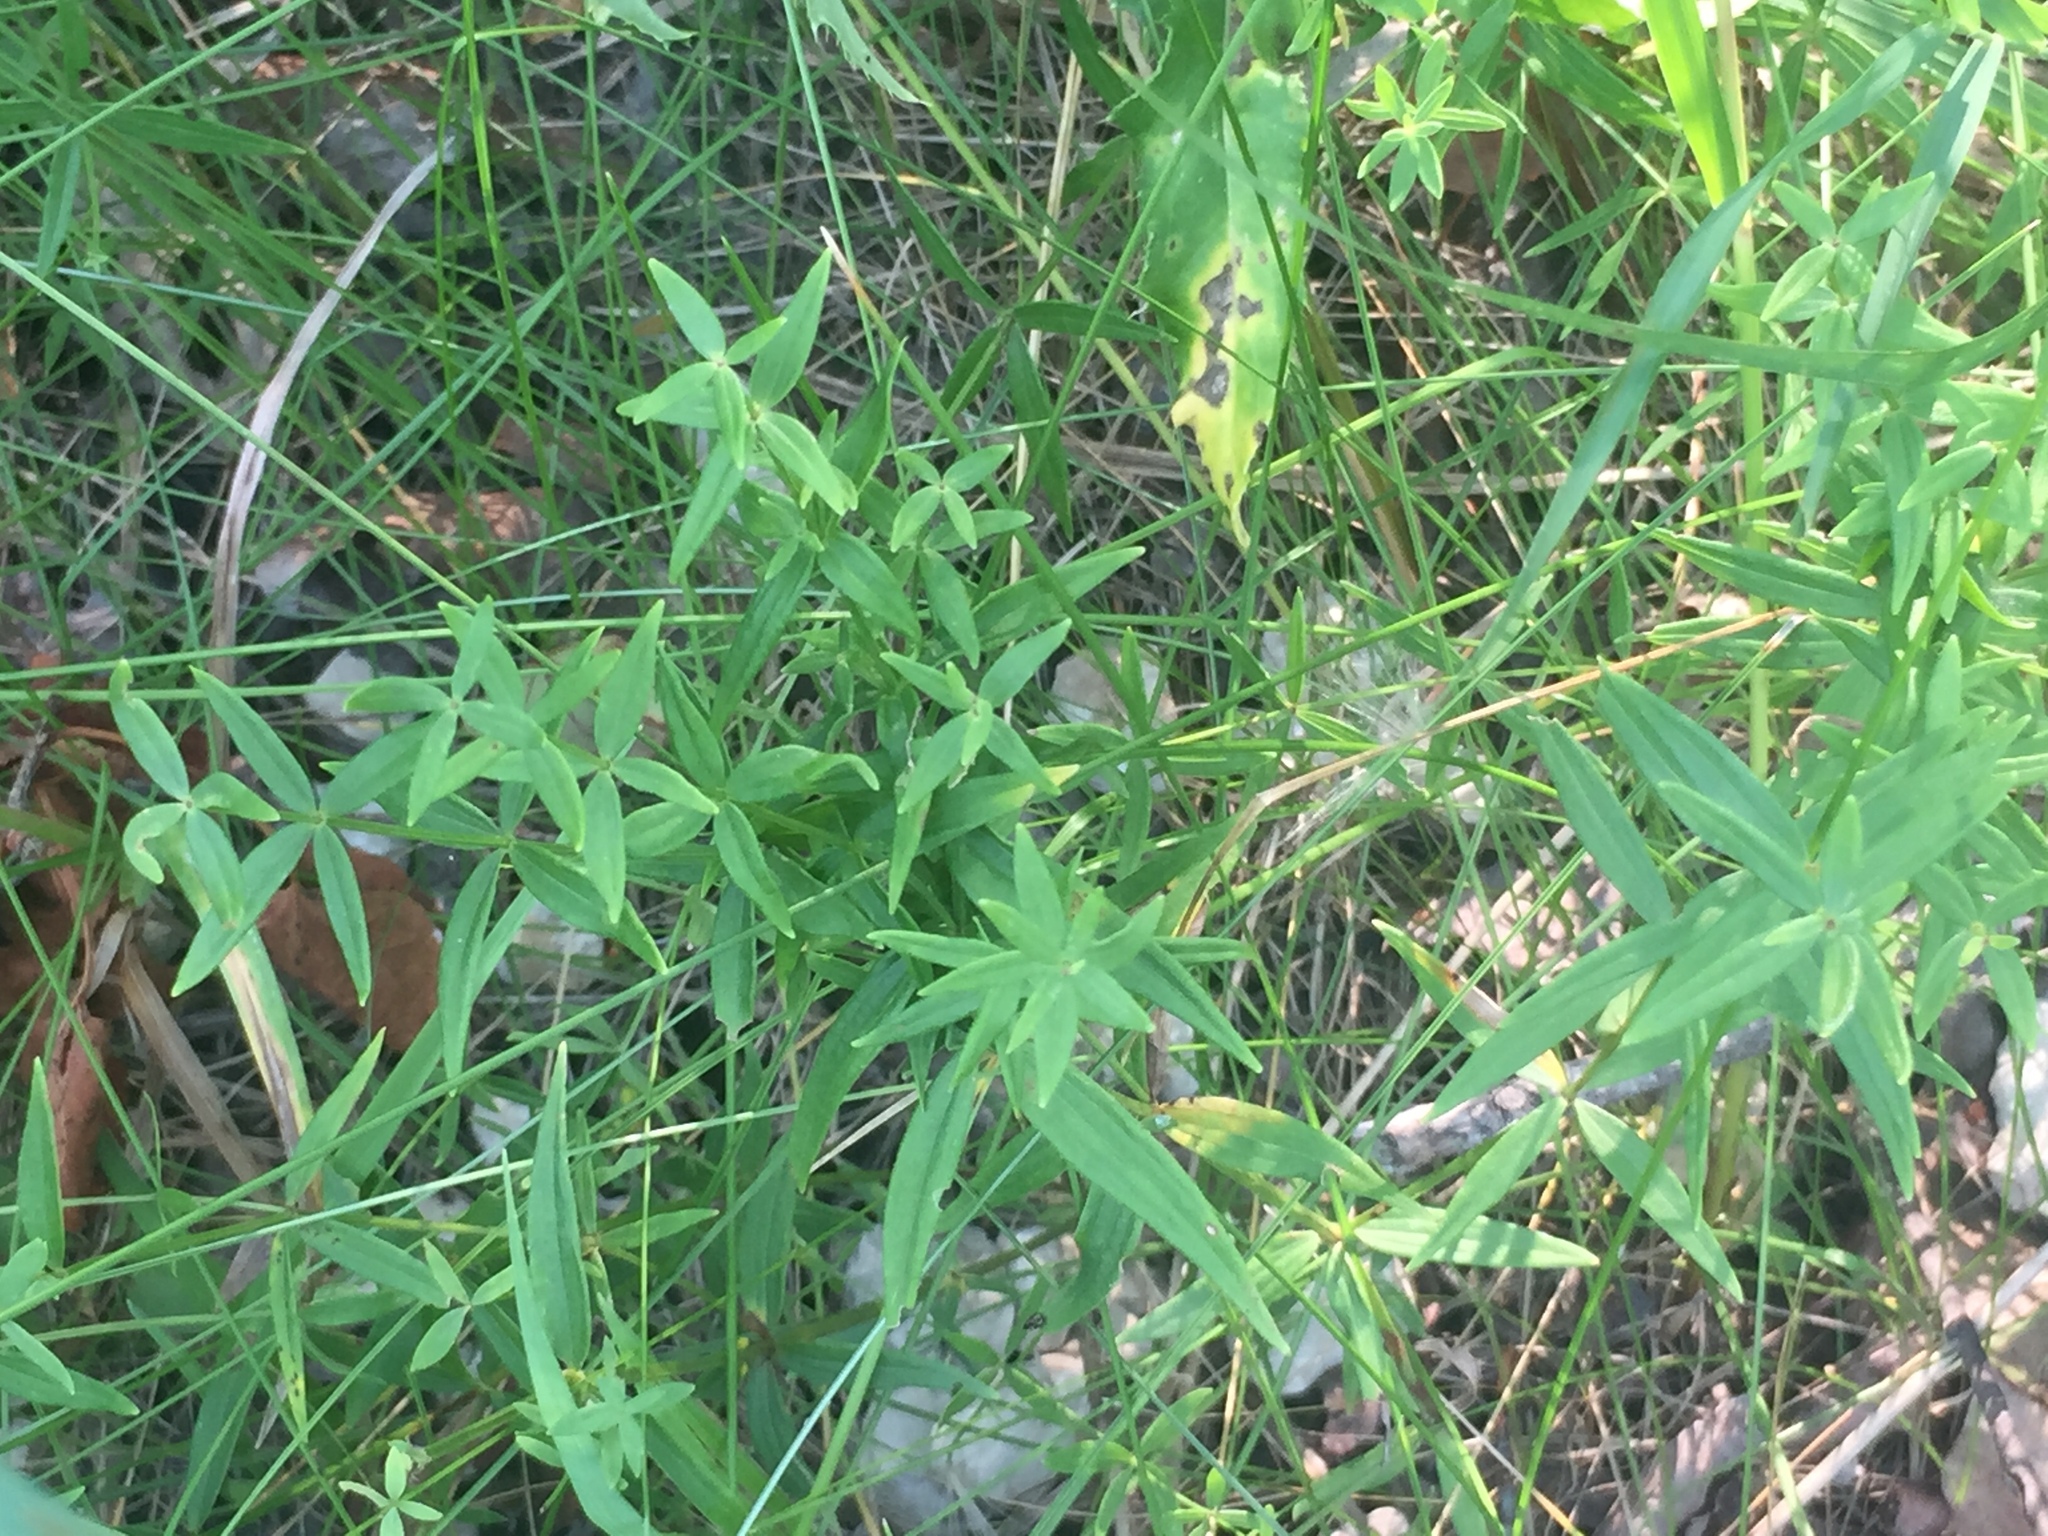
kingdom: Plantae
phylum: Tracheophyta
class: Magnoliopsida
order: Gentianales
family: Rubiaceae
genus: Galium
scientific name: Galium boreale
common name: Northern bedstraw
